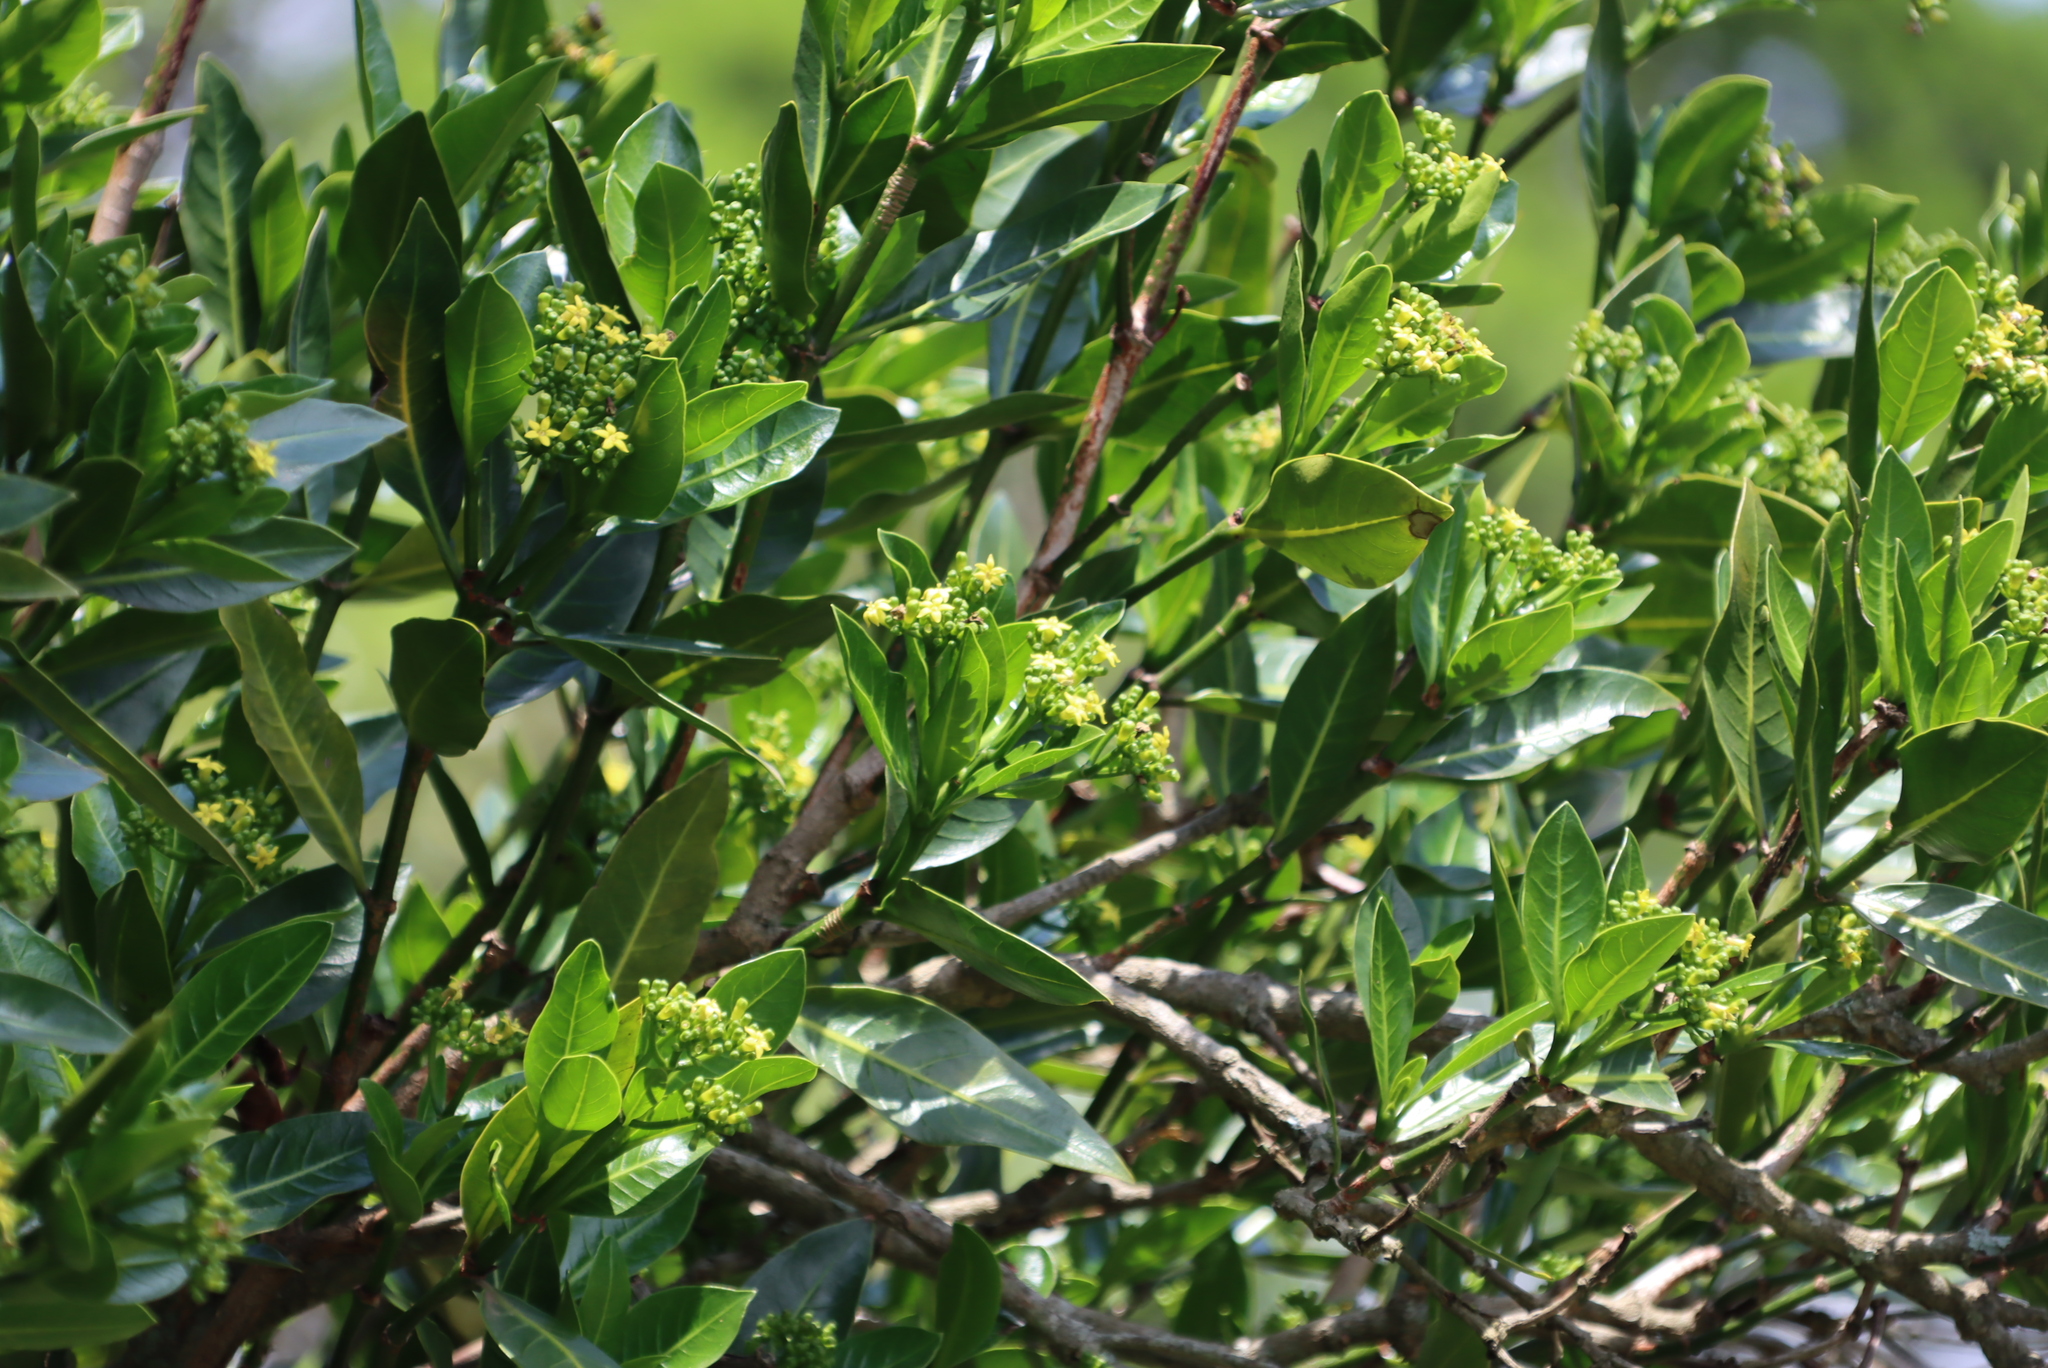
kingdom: Plantae
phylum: Tracheophyta
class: Magnoliopsida
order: Gentianales
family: Rubiaceae
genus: Psychotria
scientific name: Psychotria
